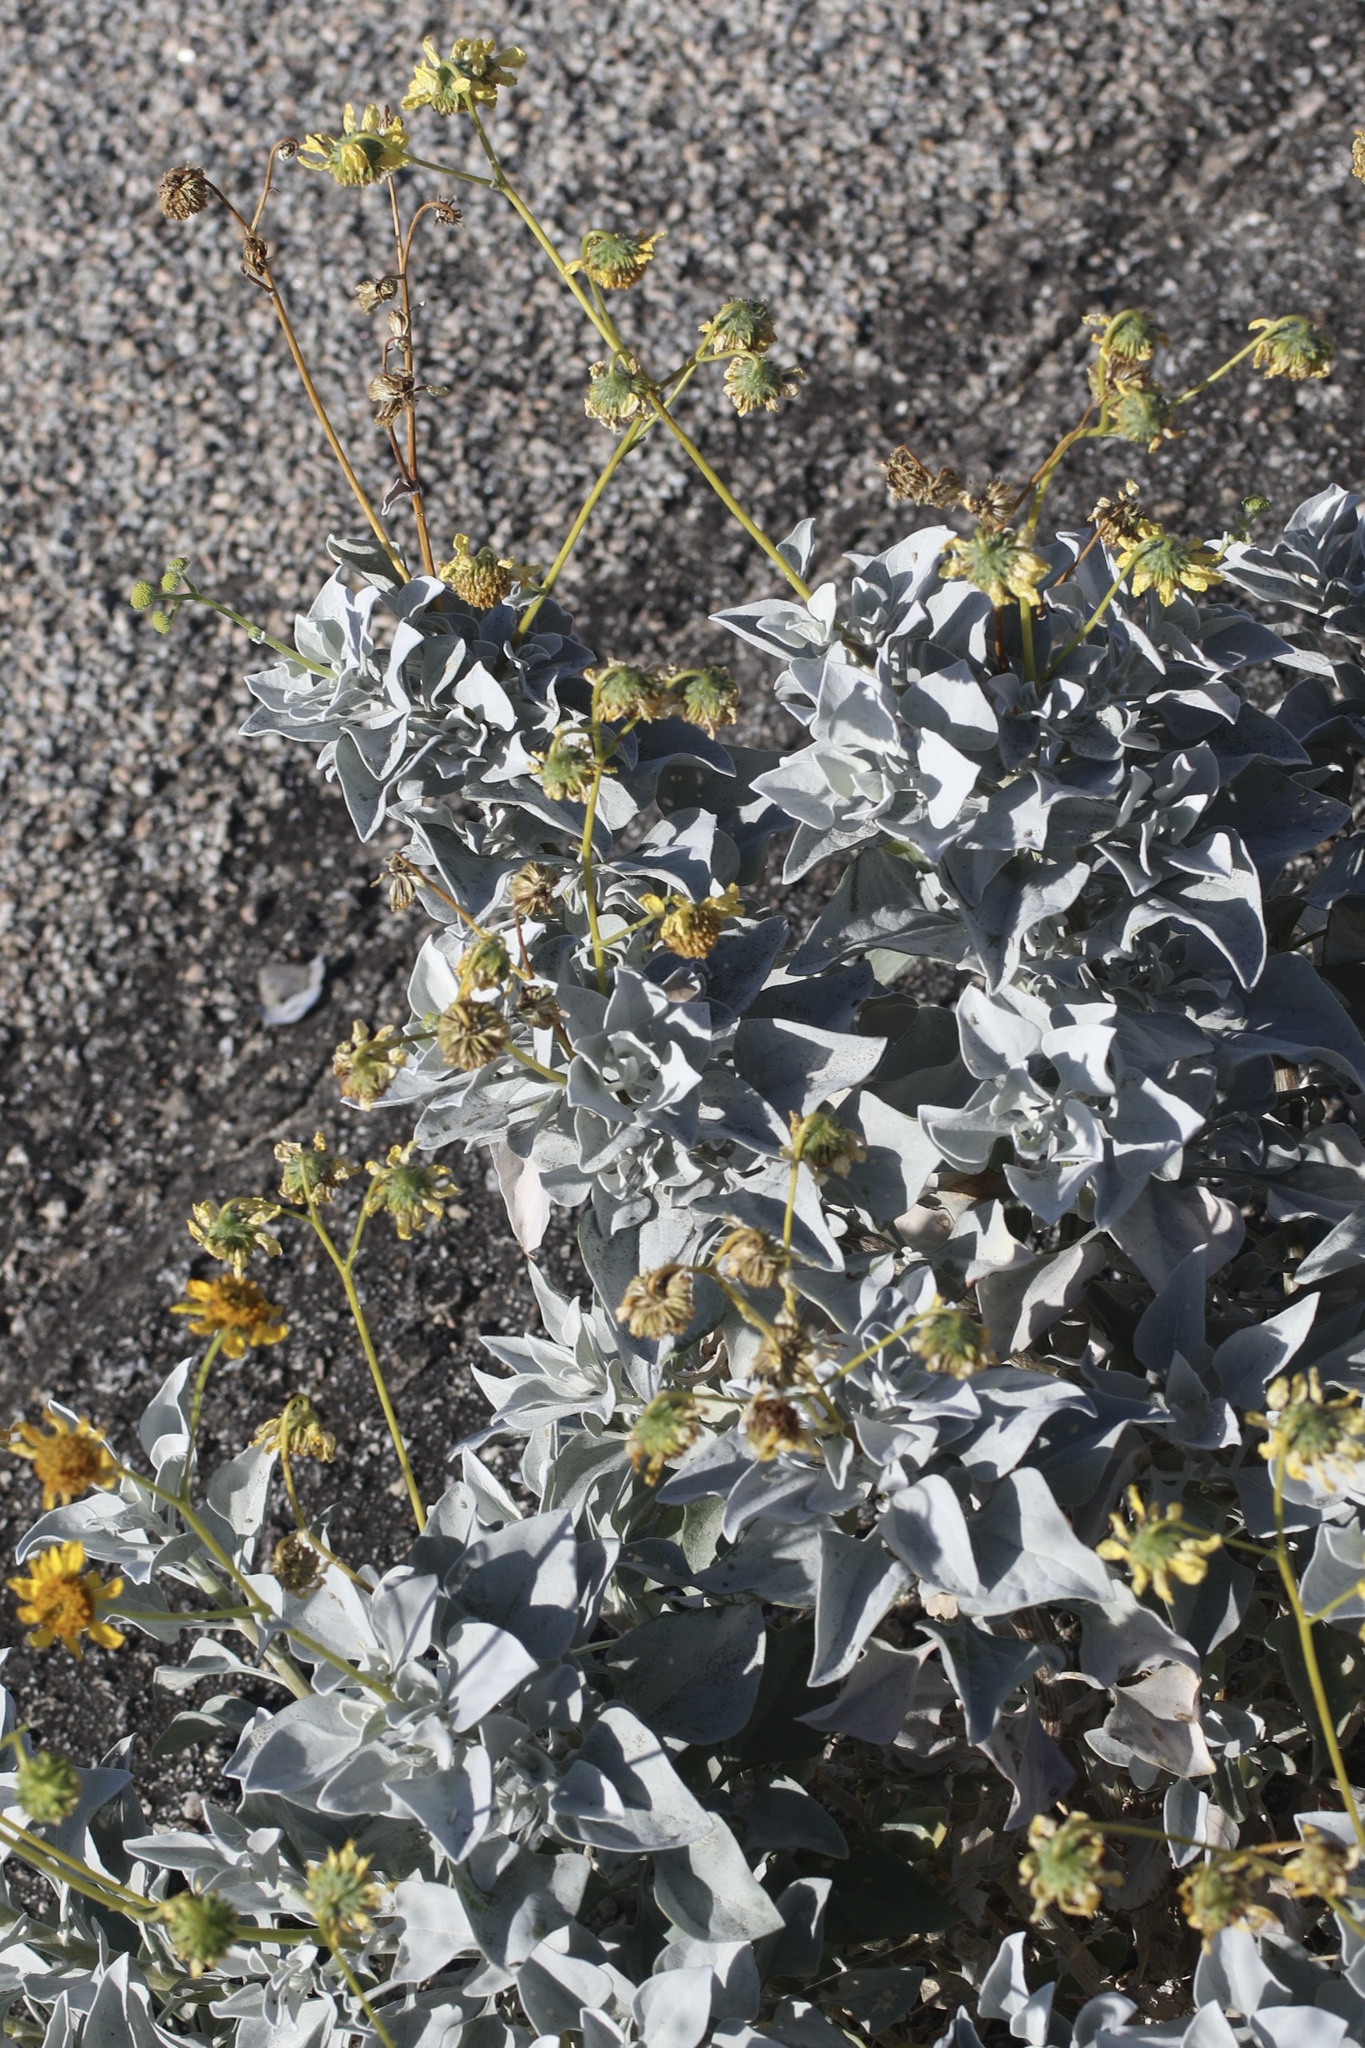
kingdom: Plantae
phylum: Tracheophyta
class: Magnoliopsida
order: Asterales
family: Asteraceae
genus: Encelia
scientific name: Encelia farinosa
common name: Brittlebush
